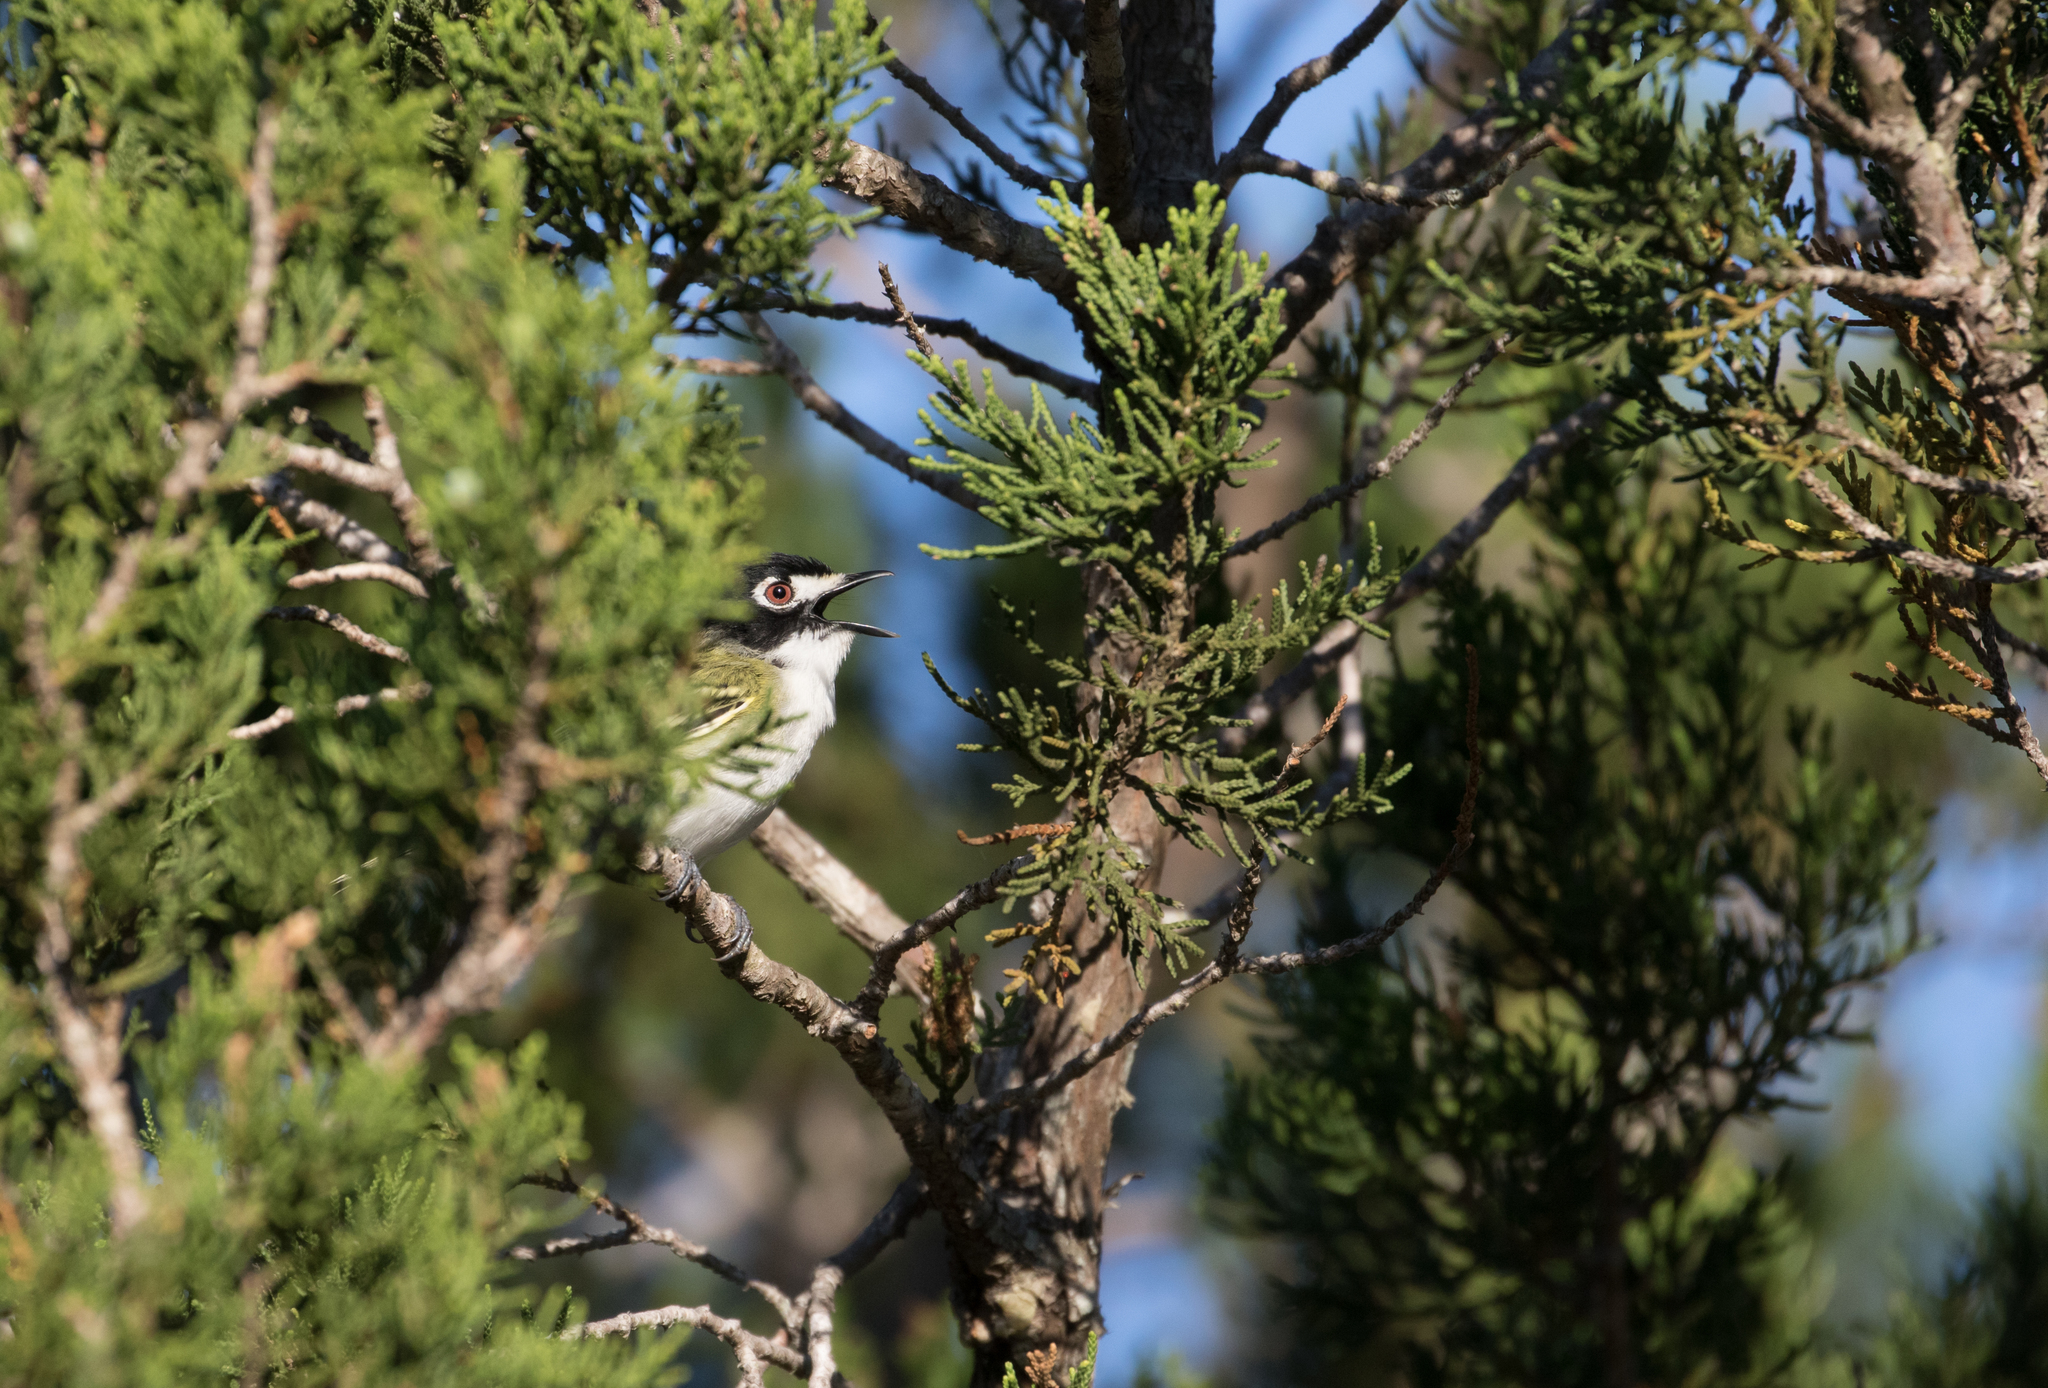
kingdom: Animalia
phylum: Chordata
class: Aves
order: Passeriformes
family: Vireonidae
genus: Vireo
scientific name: Vireo atricapilla
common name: Black-capped vireo
